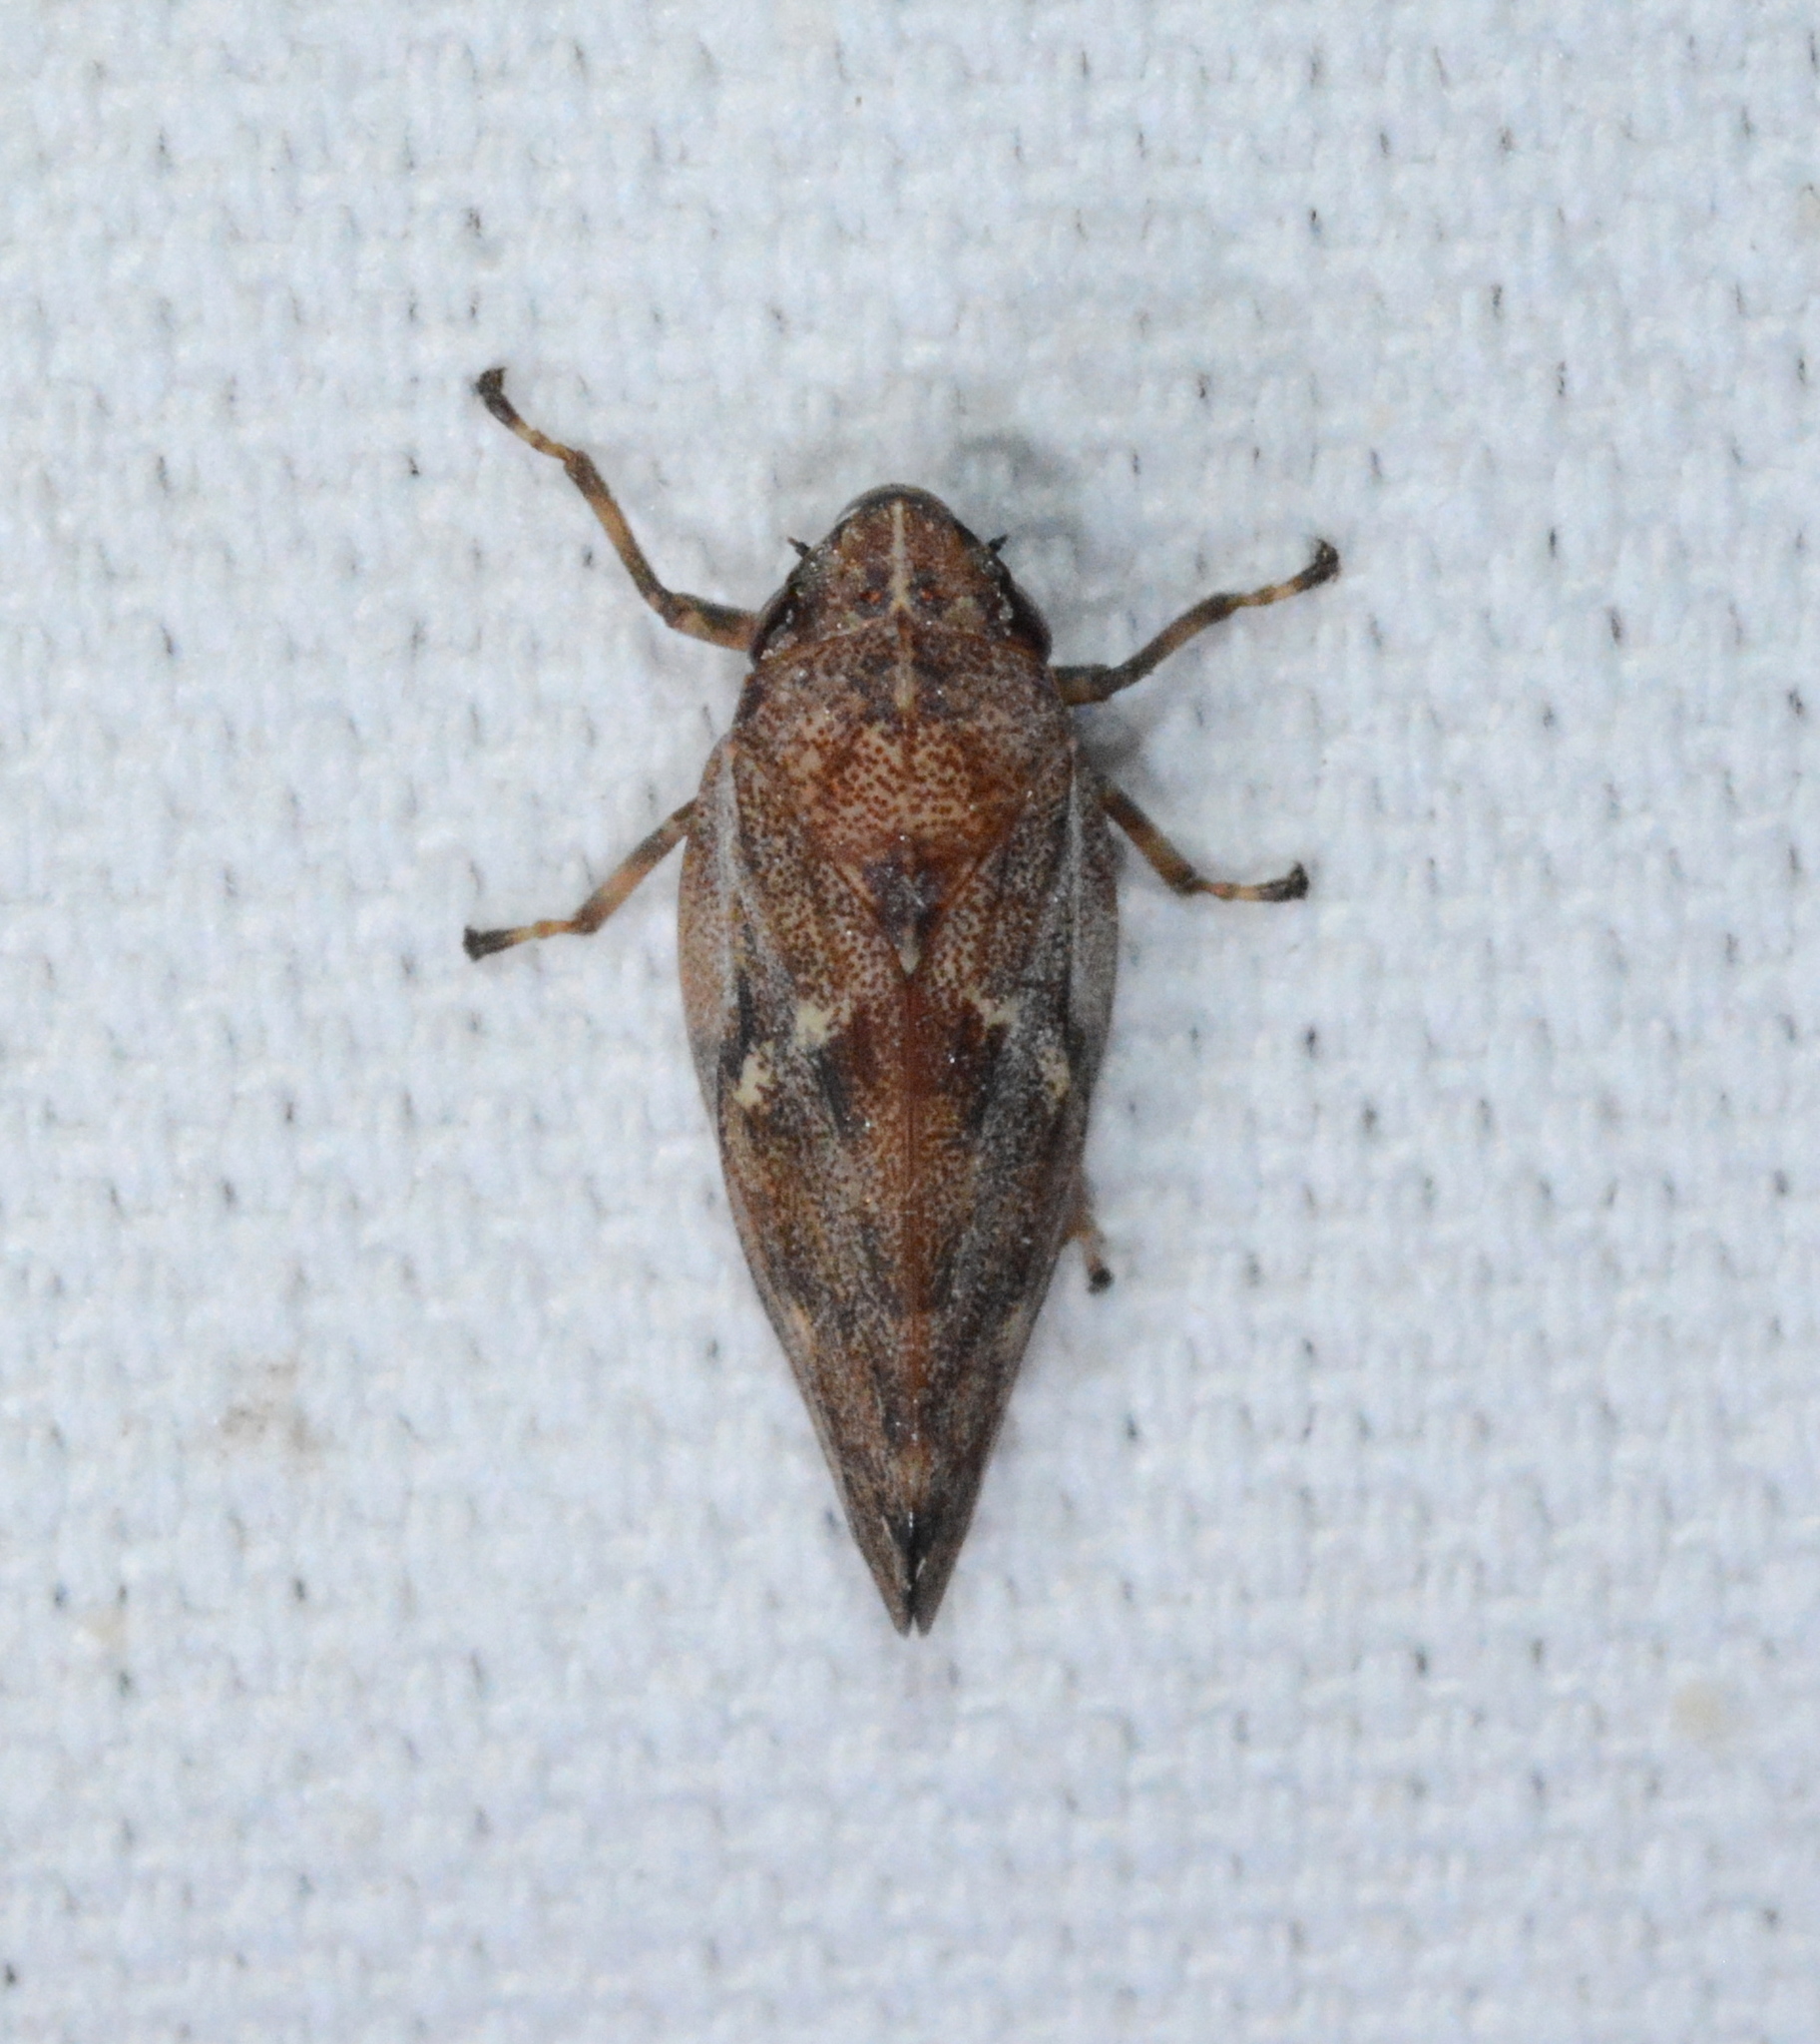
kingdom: Animalia
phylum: Arthropoda
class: Insecta
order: Hemiptera
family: Epipygidae
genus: Epipyga
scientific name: Epipyga cribrata
